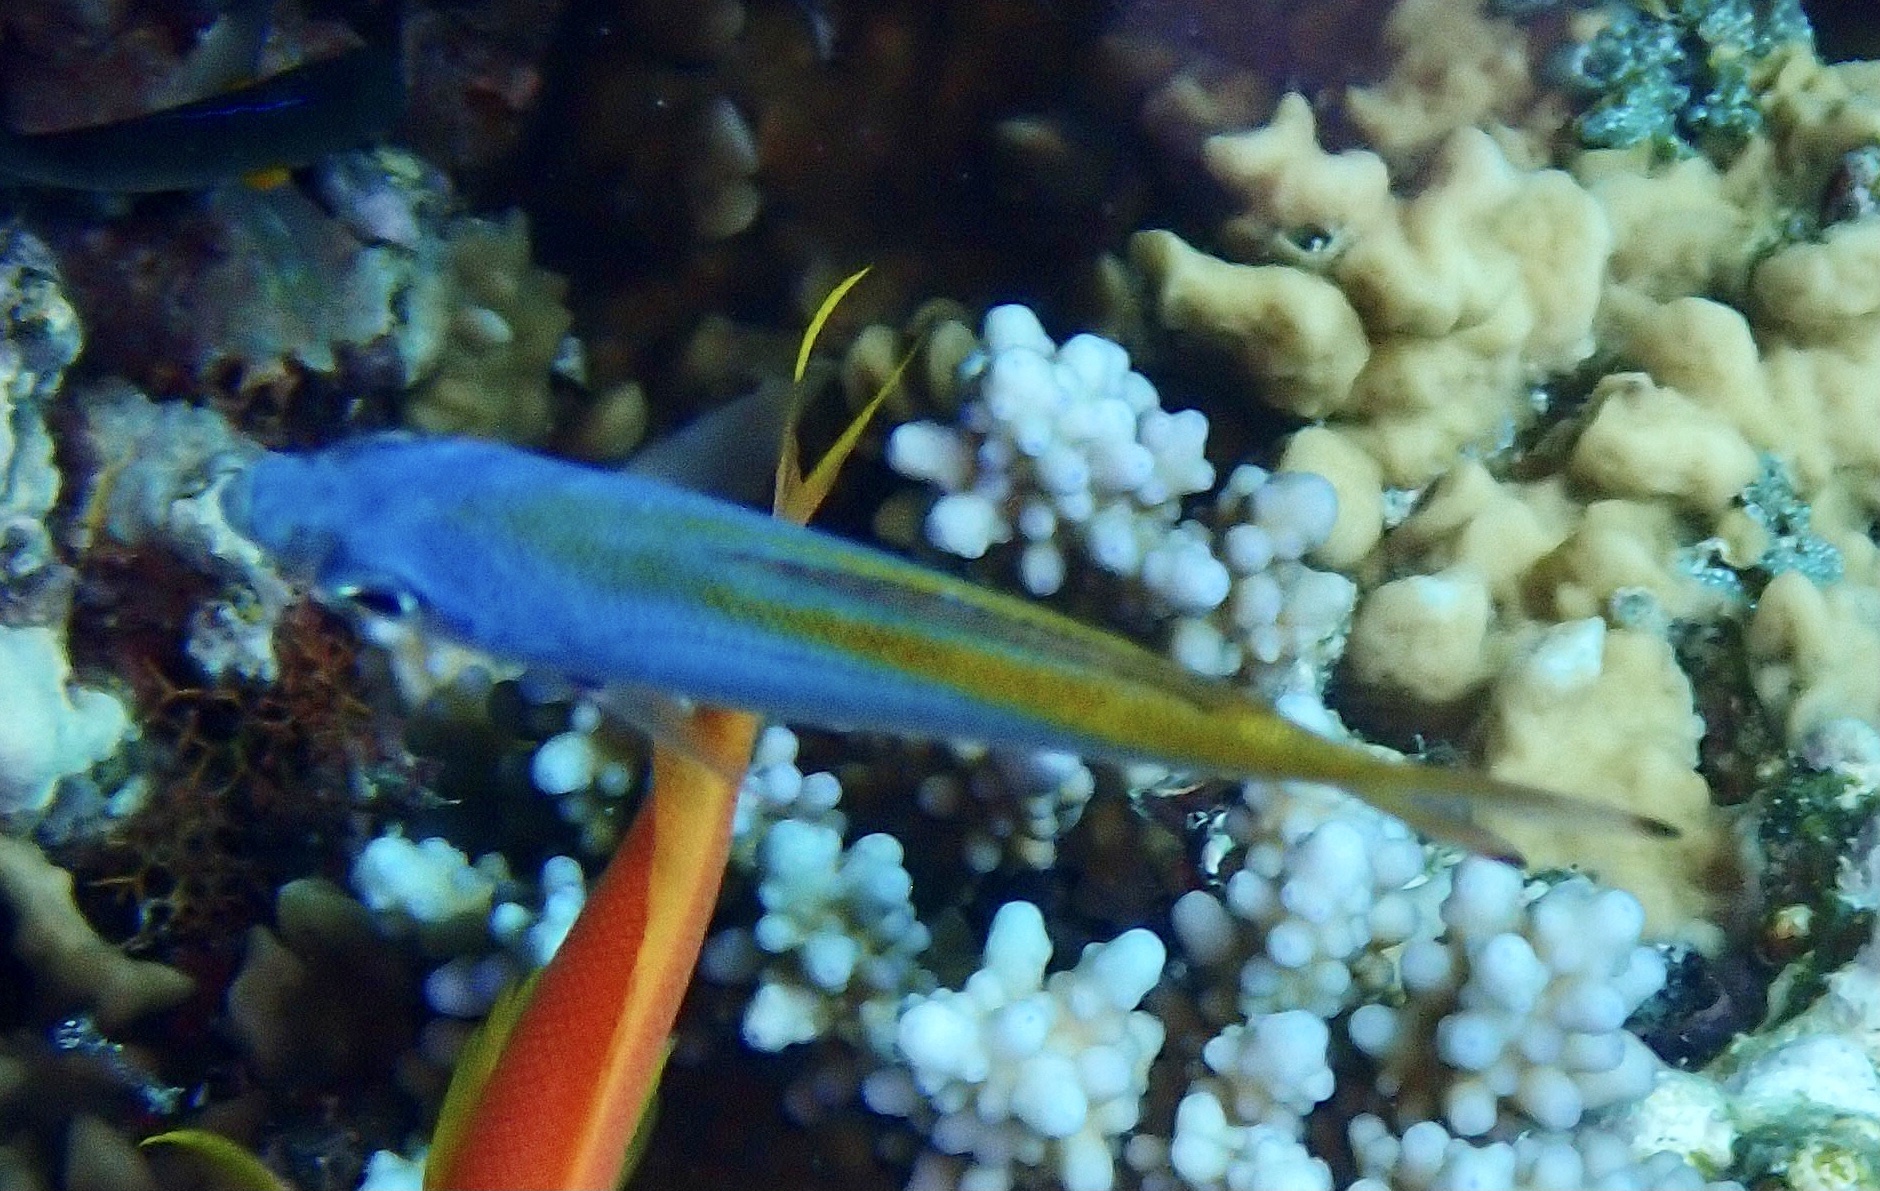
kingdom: Animalia
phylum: Chordata
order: Perciformes
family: Caesionidae
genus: Caesio
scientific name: Caesio lunaris
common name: Blue fusilier
